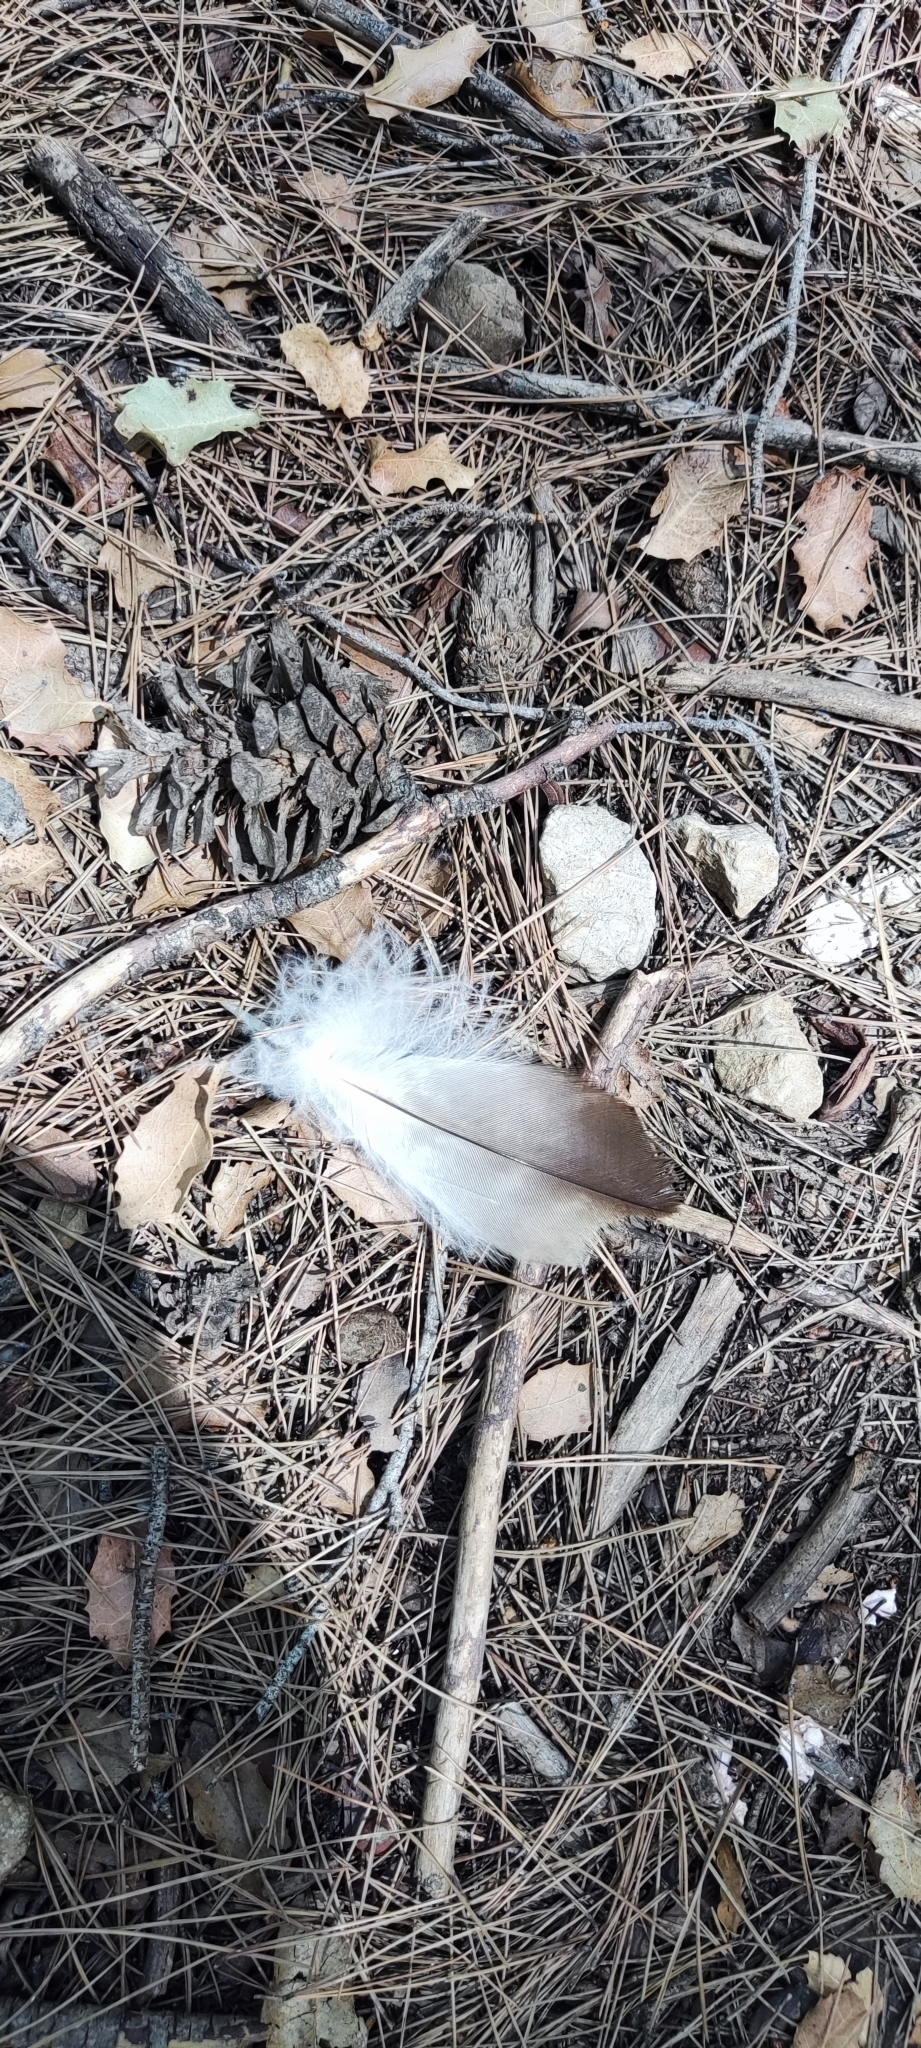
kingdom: Animalia
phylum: Chordata
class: Aves
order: Accipitriformes
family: Accipitridae
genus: Hieraaetus
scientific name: Hieraaetus pennatus
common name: Booted eagle
